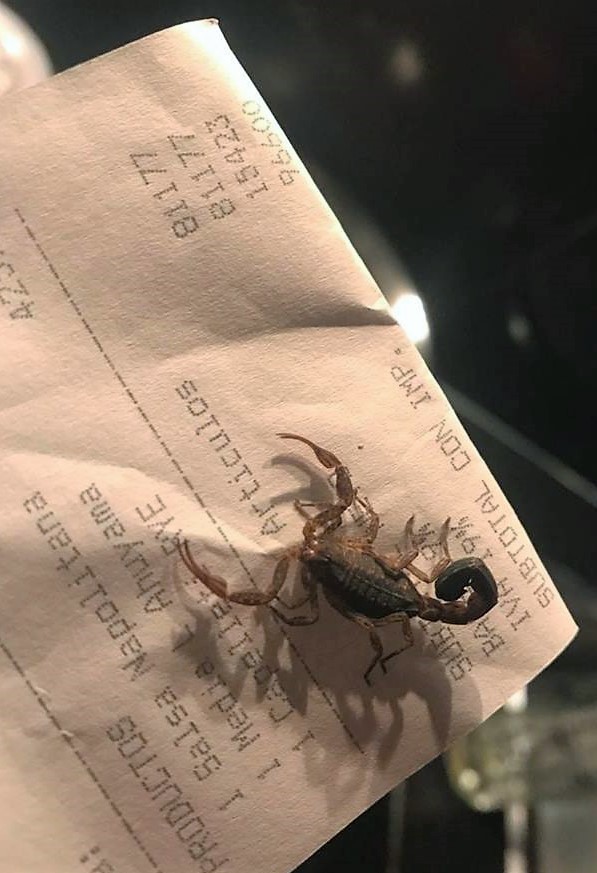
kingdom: Animalia
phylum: Arthropoda
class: Arachnida
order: Scorpiones
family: Buthidae
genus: Tityus
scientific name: Tityus columbianus
